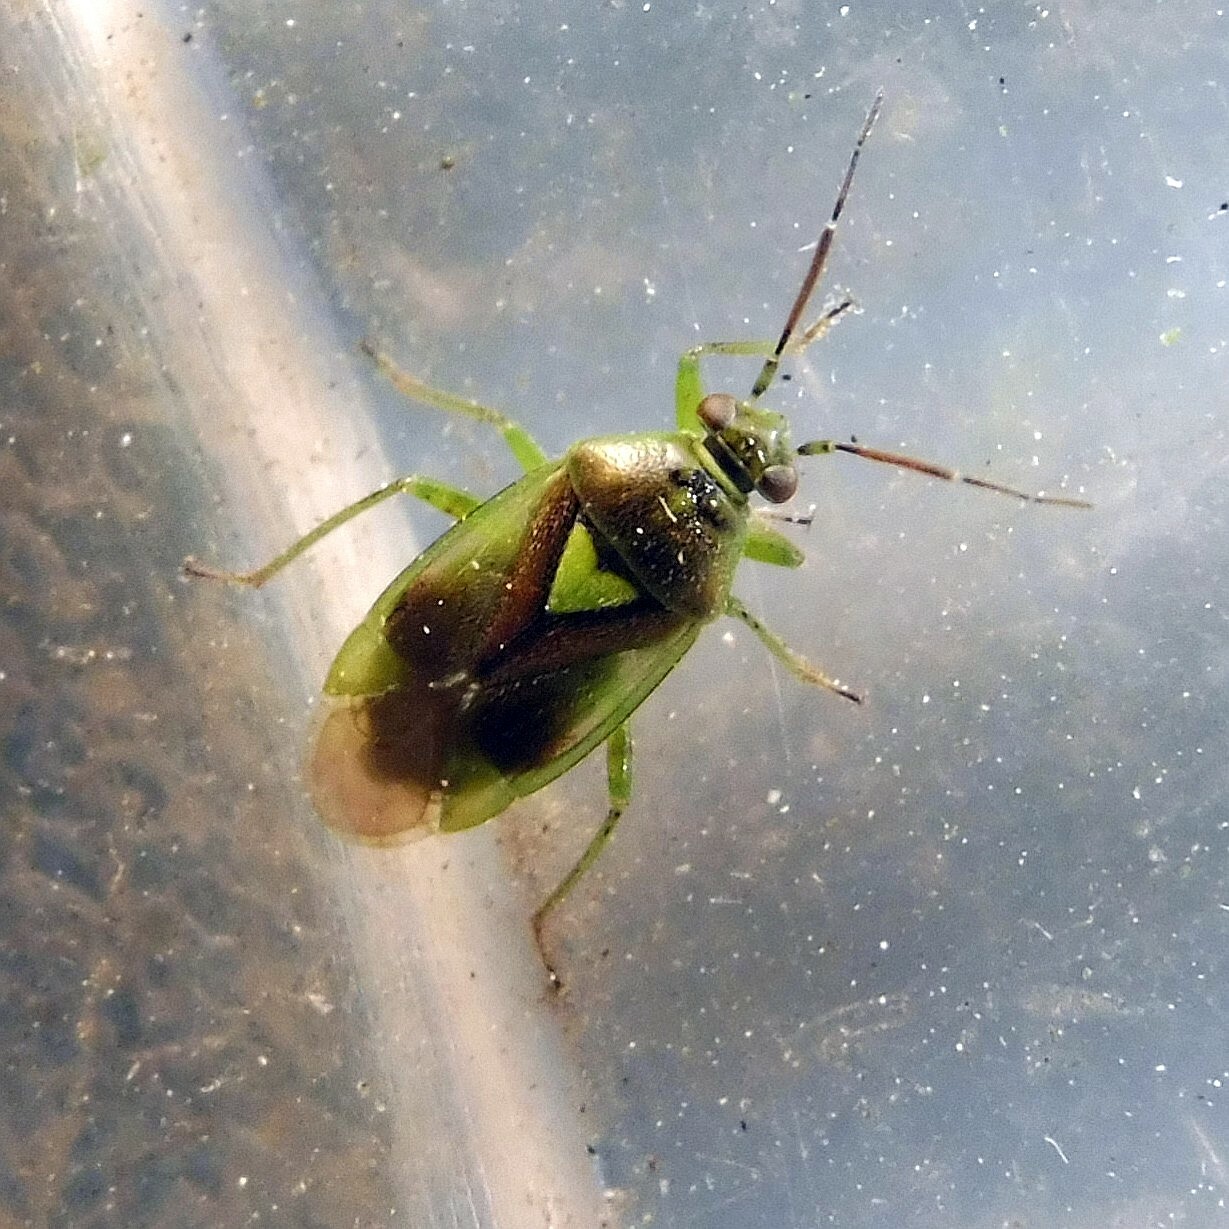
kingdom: Animalia
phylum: Arthropoda
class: Insecta
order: Hemiptera
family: Miridae
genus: Orthops
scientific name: Orthops campestris
